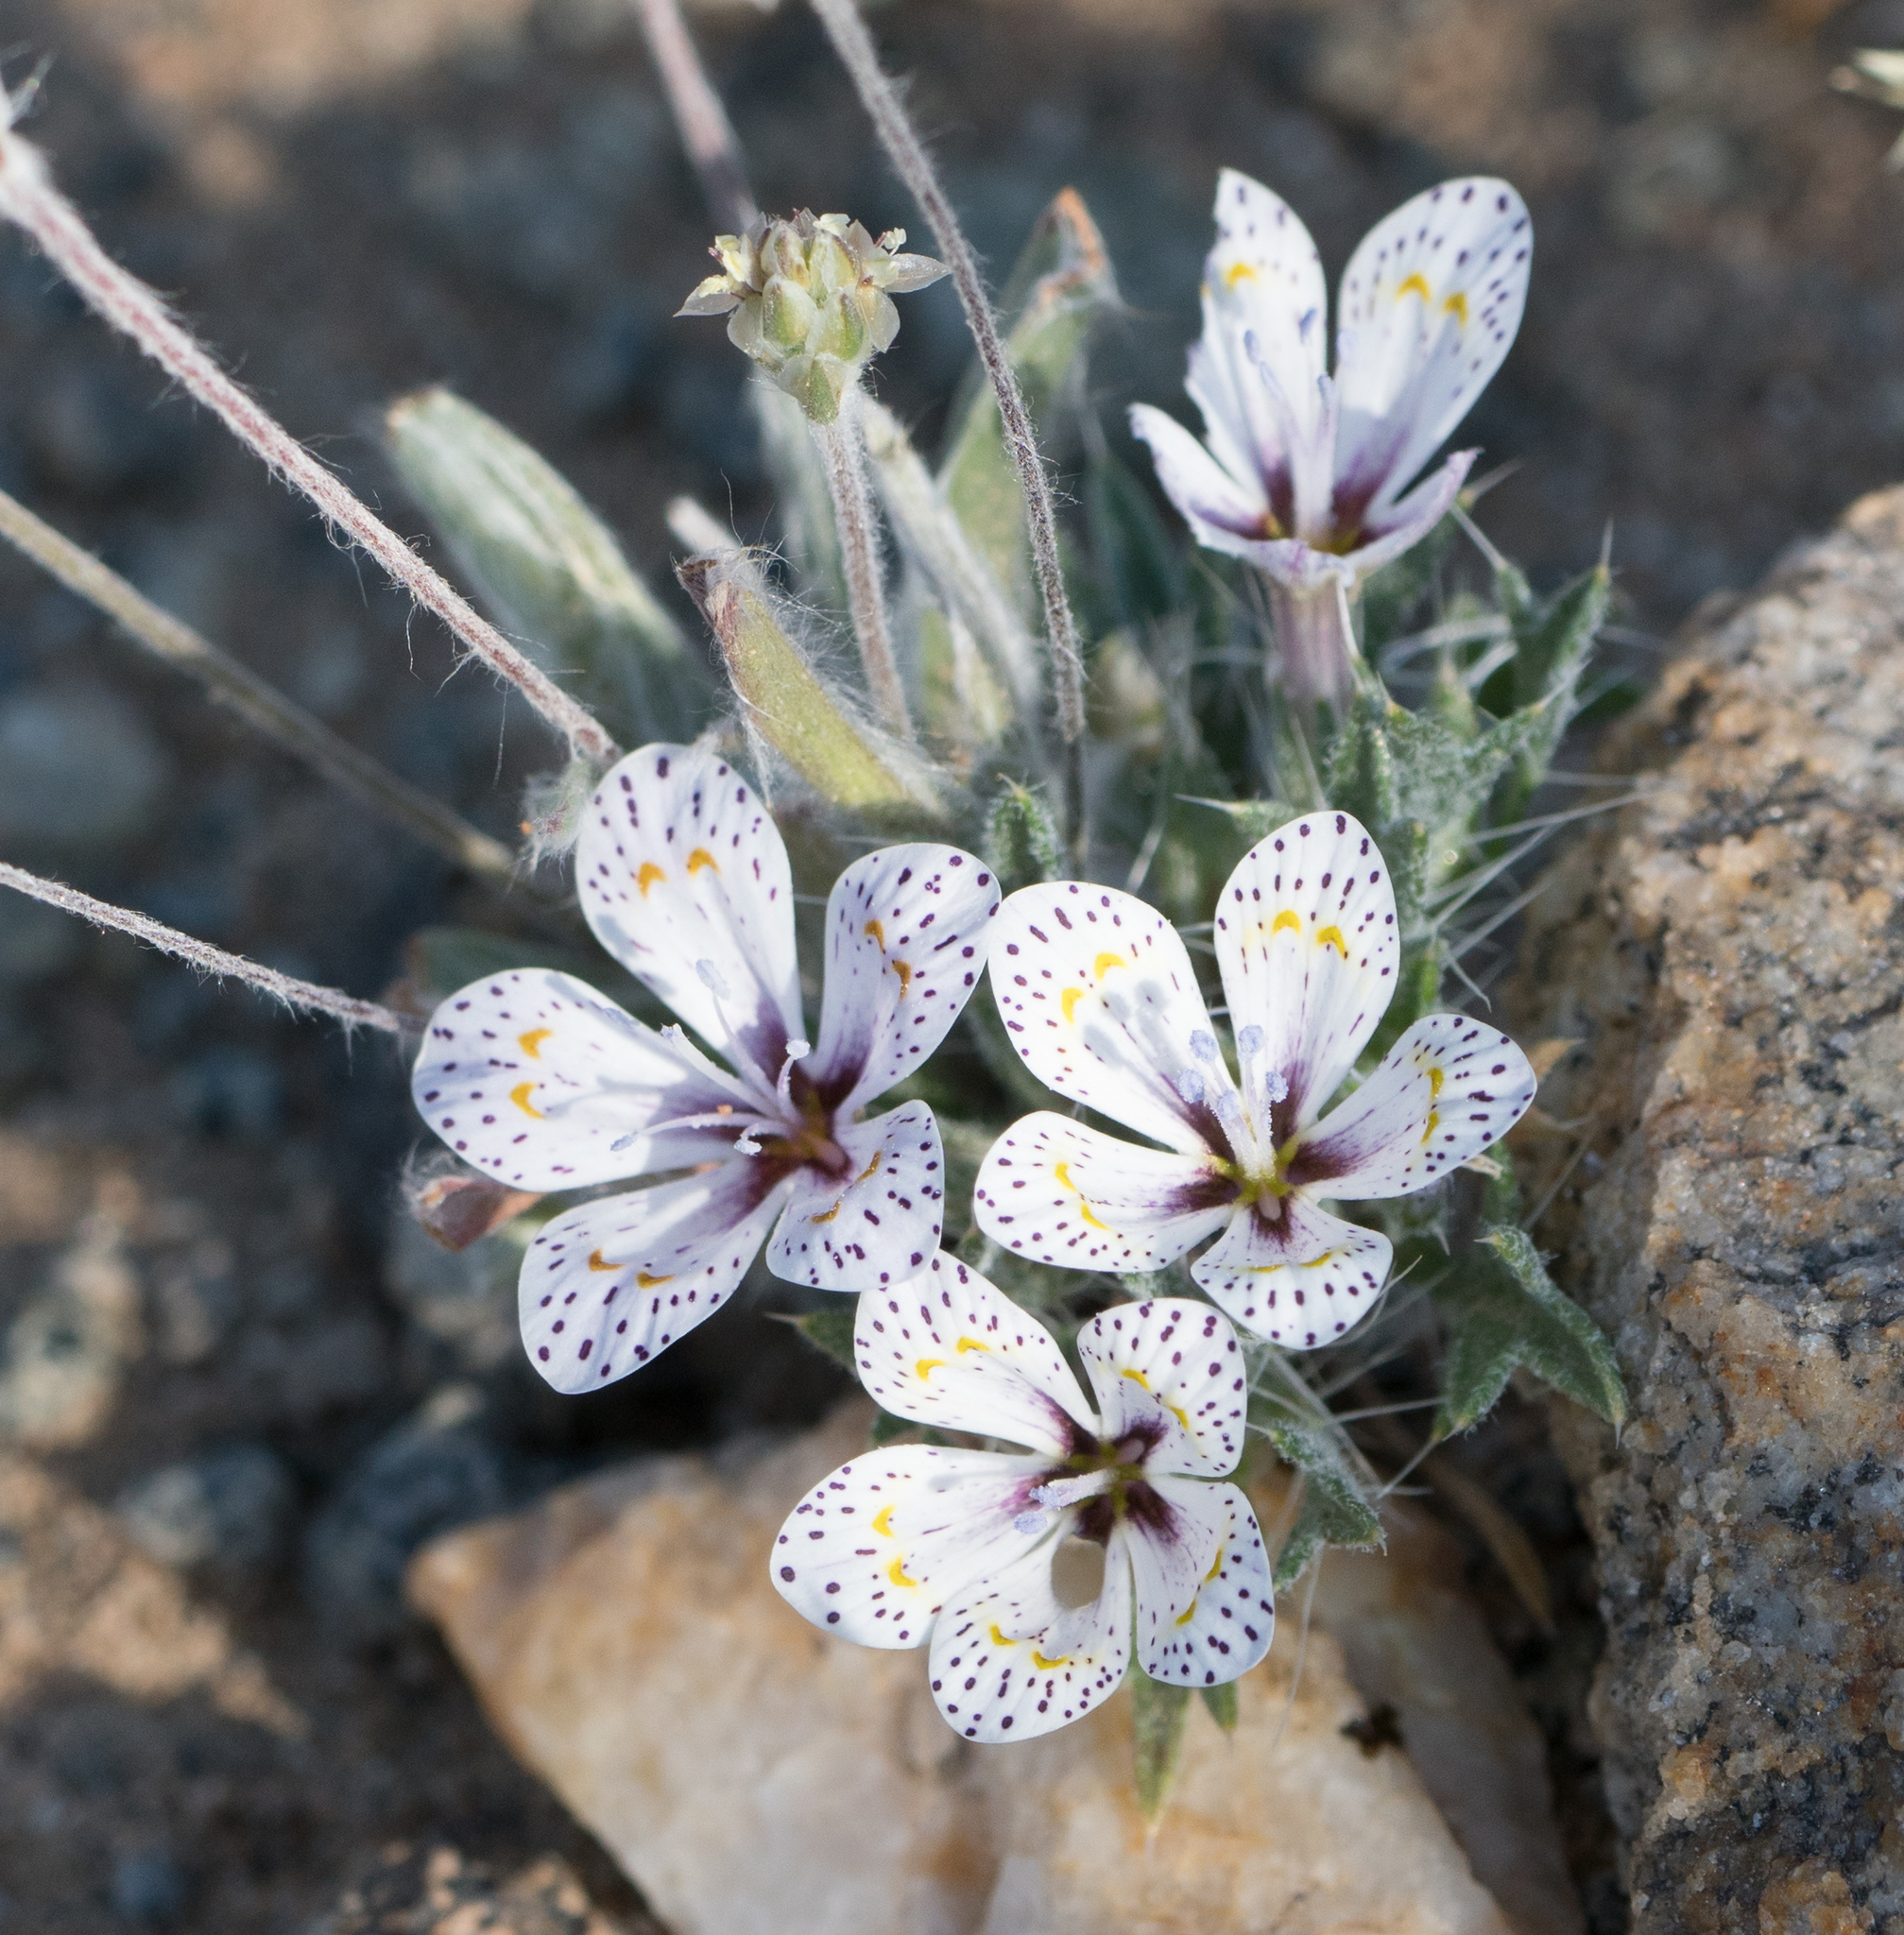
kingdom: Plantae
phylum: Tracheophyta
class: Magnoliopsida
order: Ericales
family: Polemoniaceae
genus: Langloisia
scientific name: Langloisia setosissima
